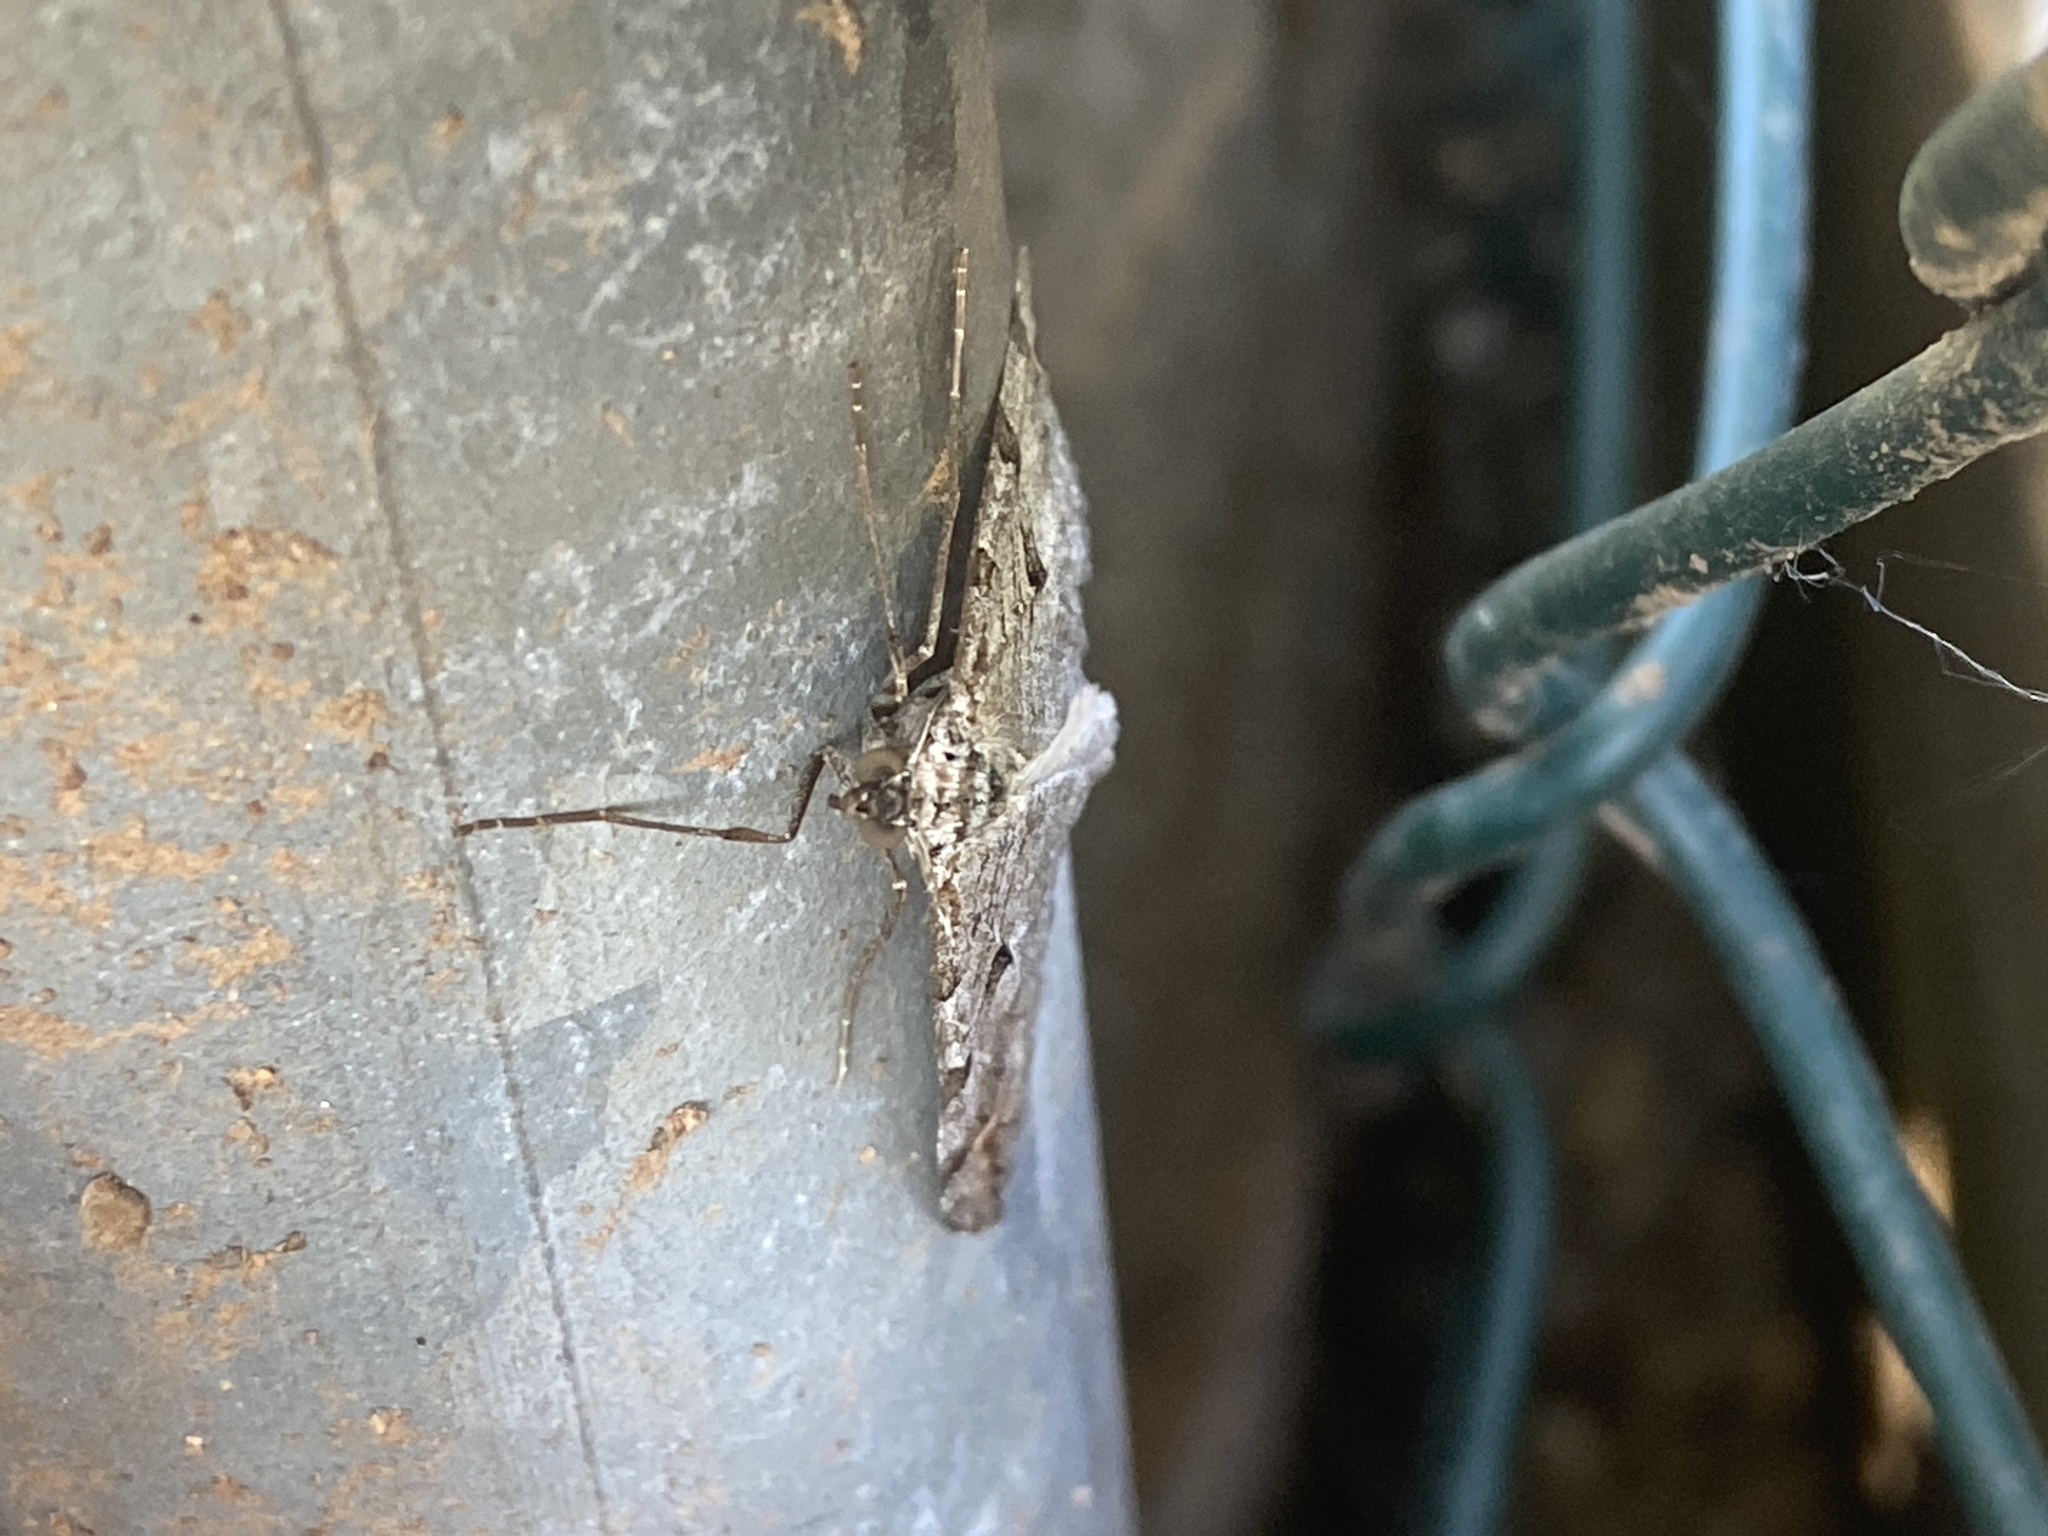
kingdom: Animalia
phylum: Arthropoda
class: Insecta
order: Lepidoptera
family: Geometridae
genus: Peribatodes
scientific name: Peribatodes rhomboidaria
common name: Willow beauty
